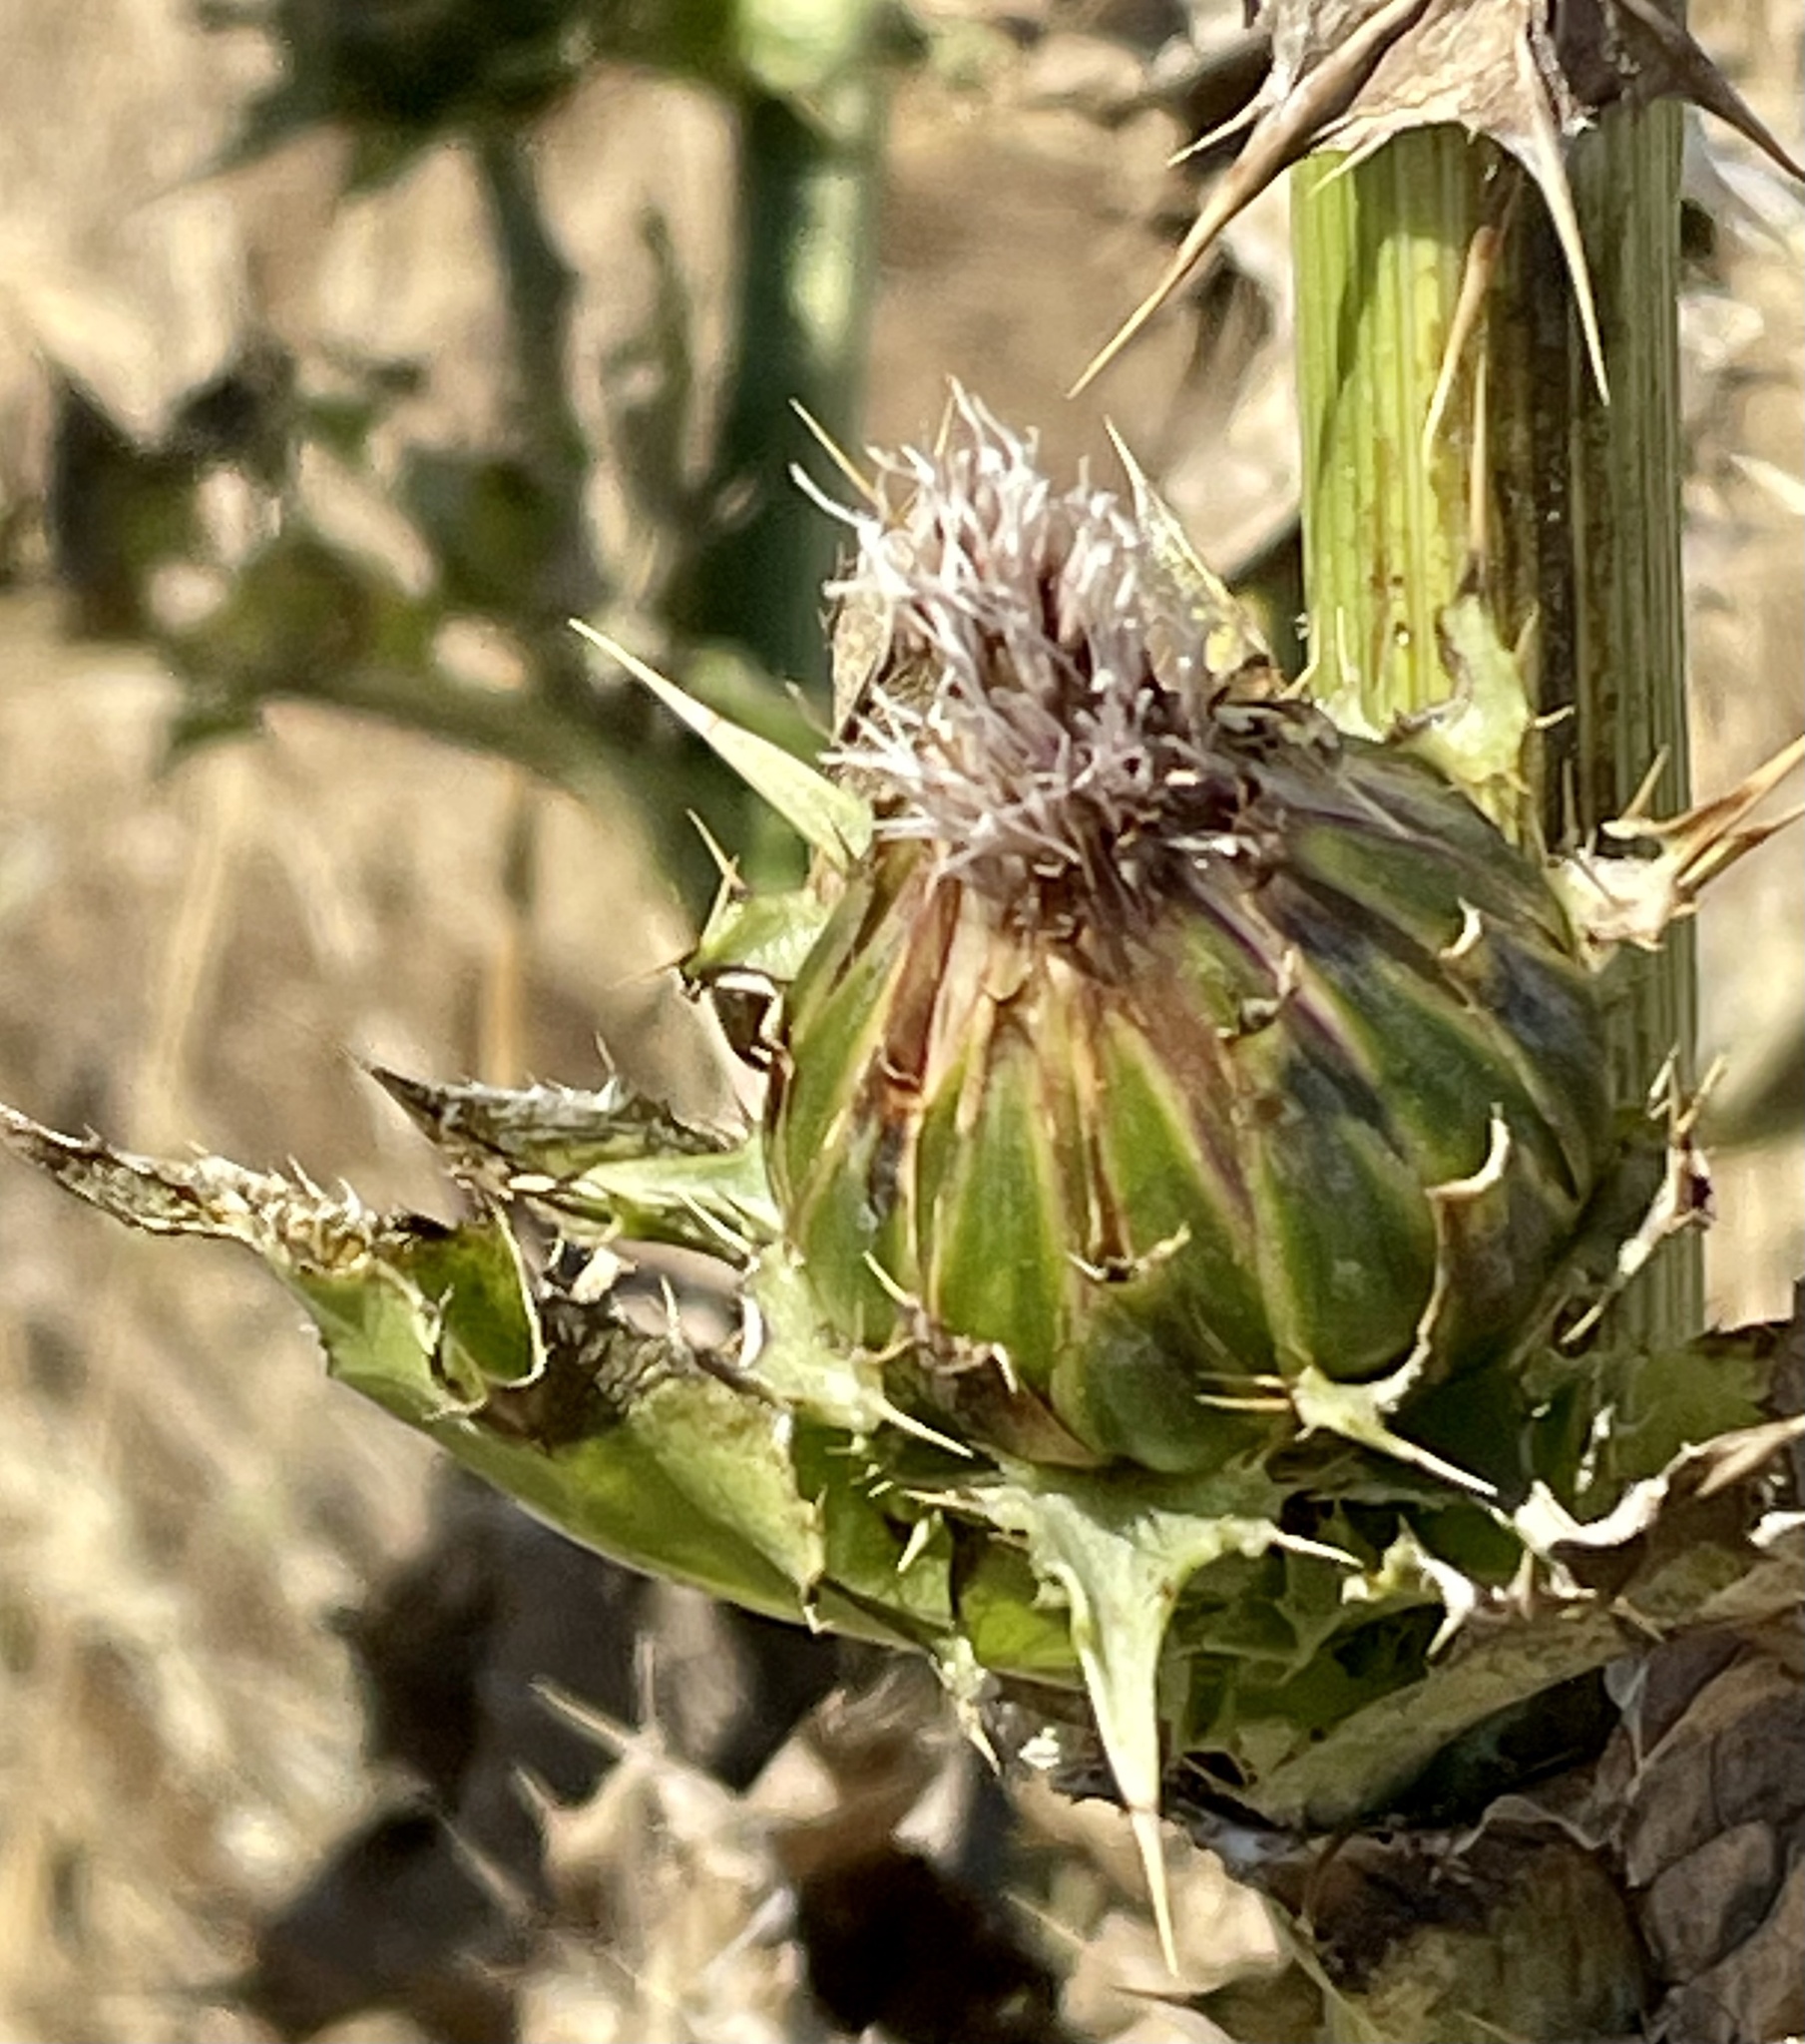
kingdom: Plantae
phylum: Tracheophyta
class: Magnoliopsida
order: Asterales
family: Asteraceae
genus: Silybum
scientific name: Silybum marianum
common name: Milk thistle
